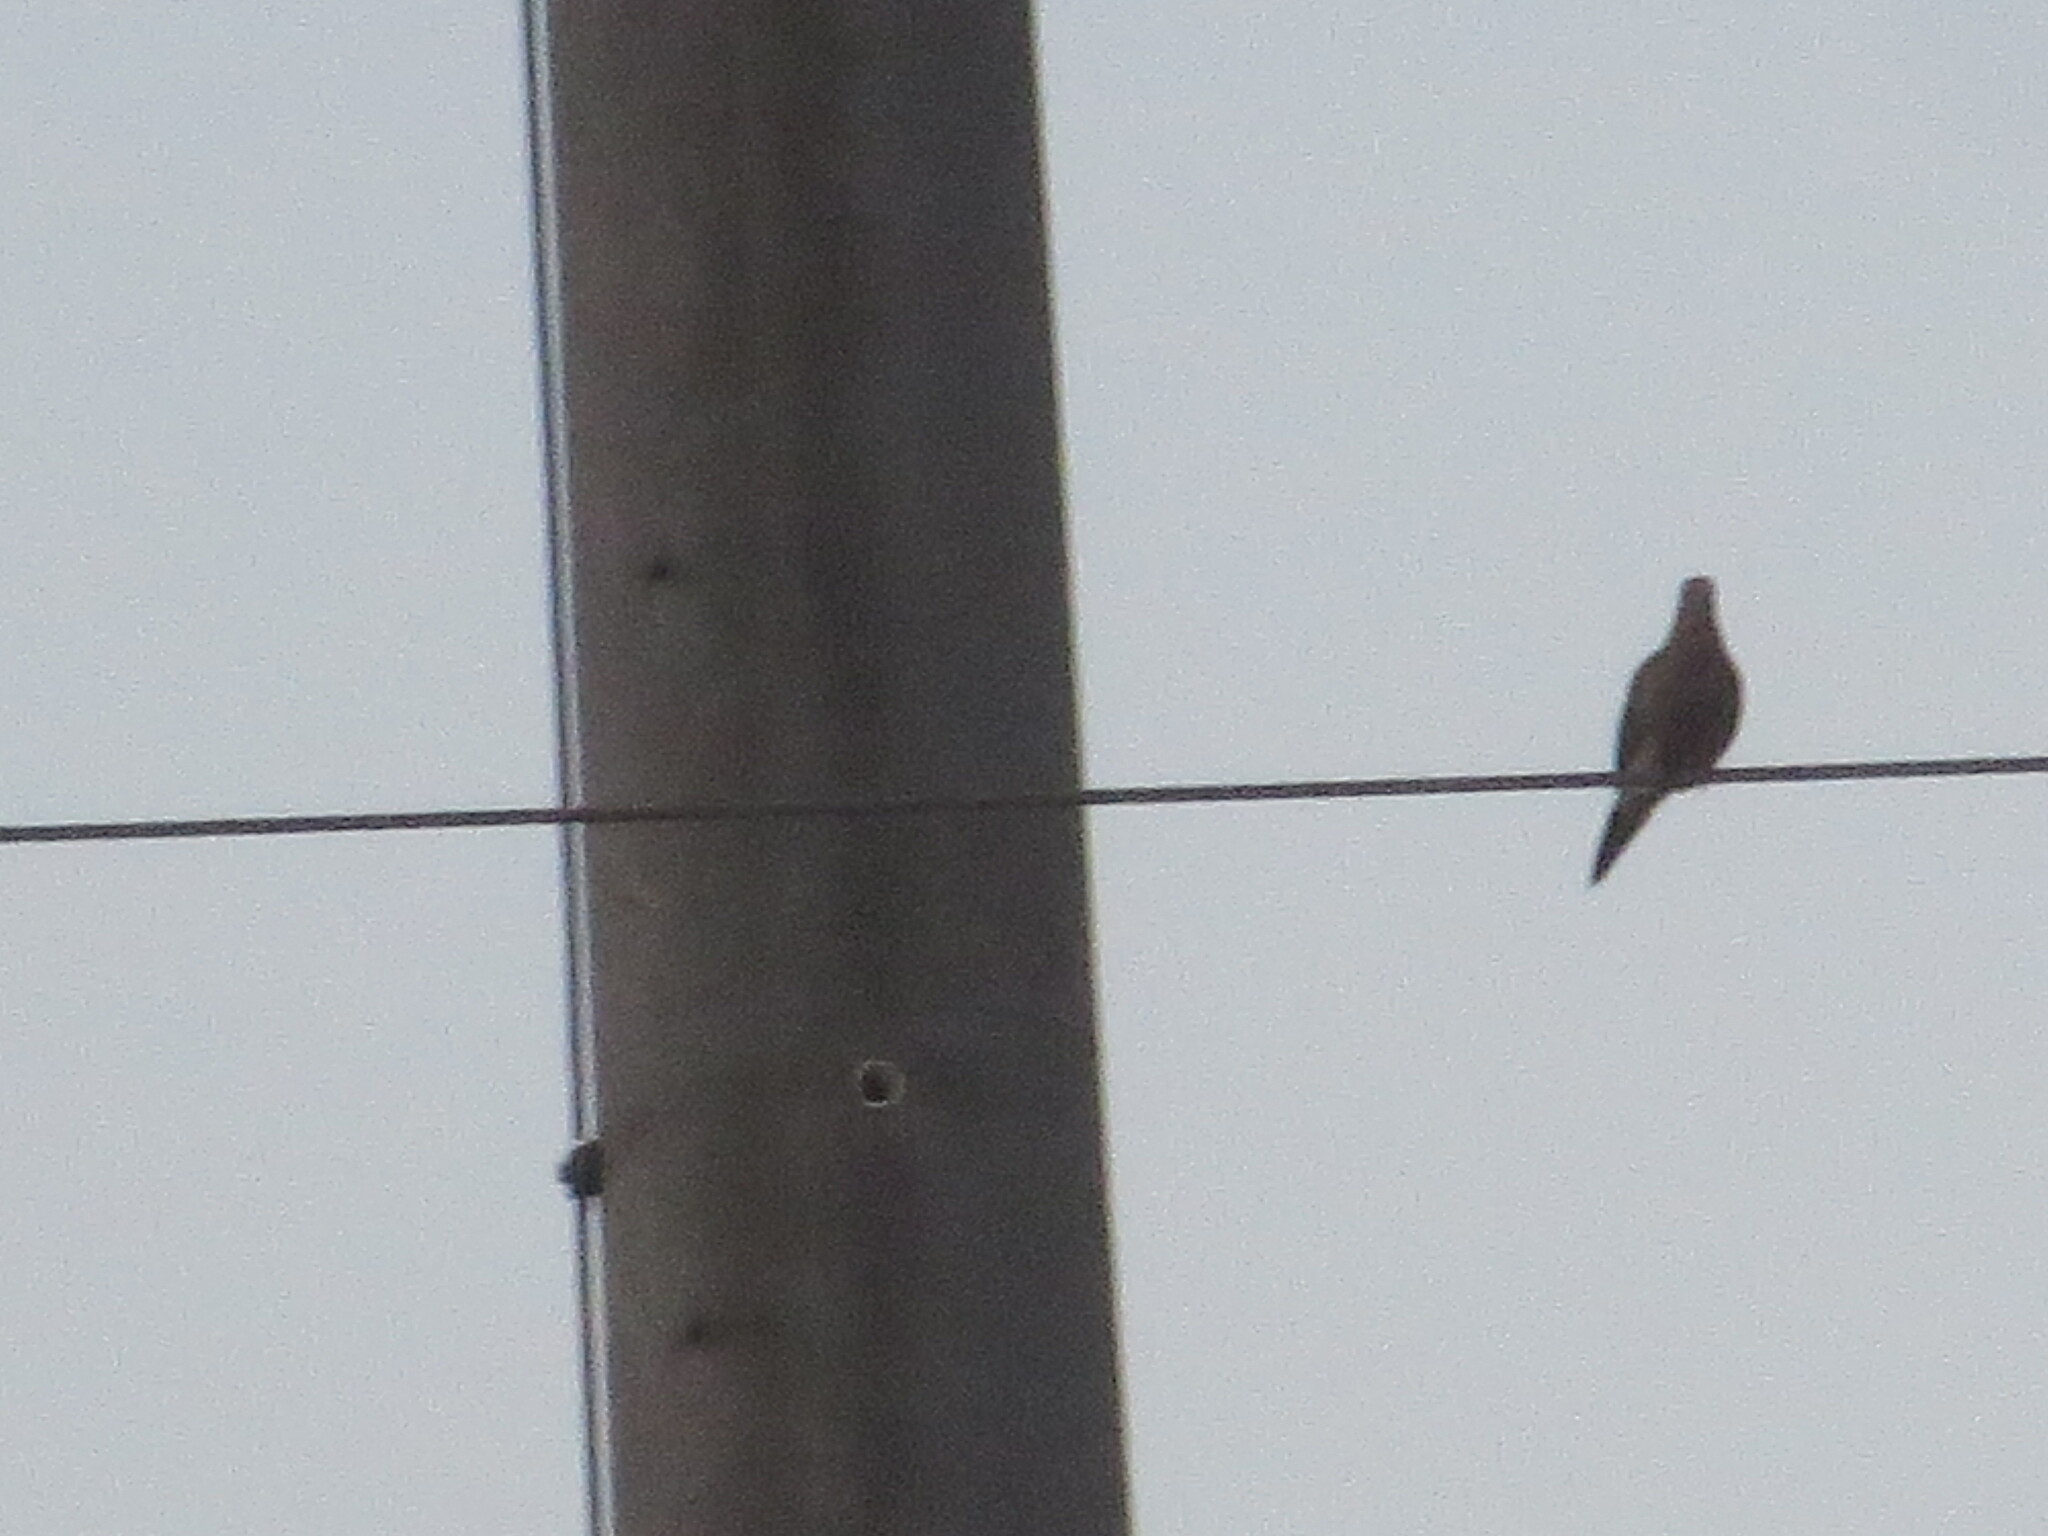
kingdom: Animalia
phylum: Chordata
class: Aves
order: Columbiformes
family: Columbidae
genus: Zenaida
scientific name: Zenaida macroura
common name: Mourning dove
